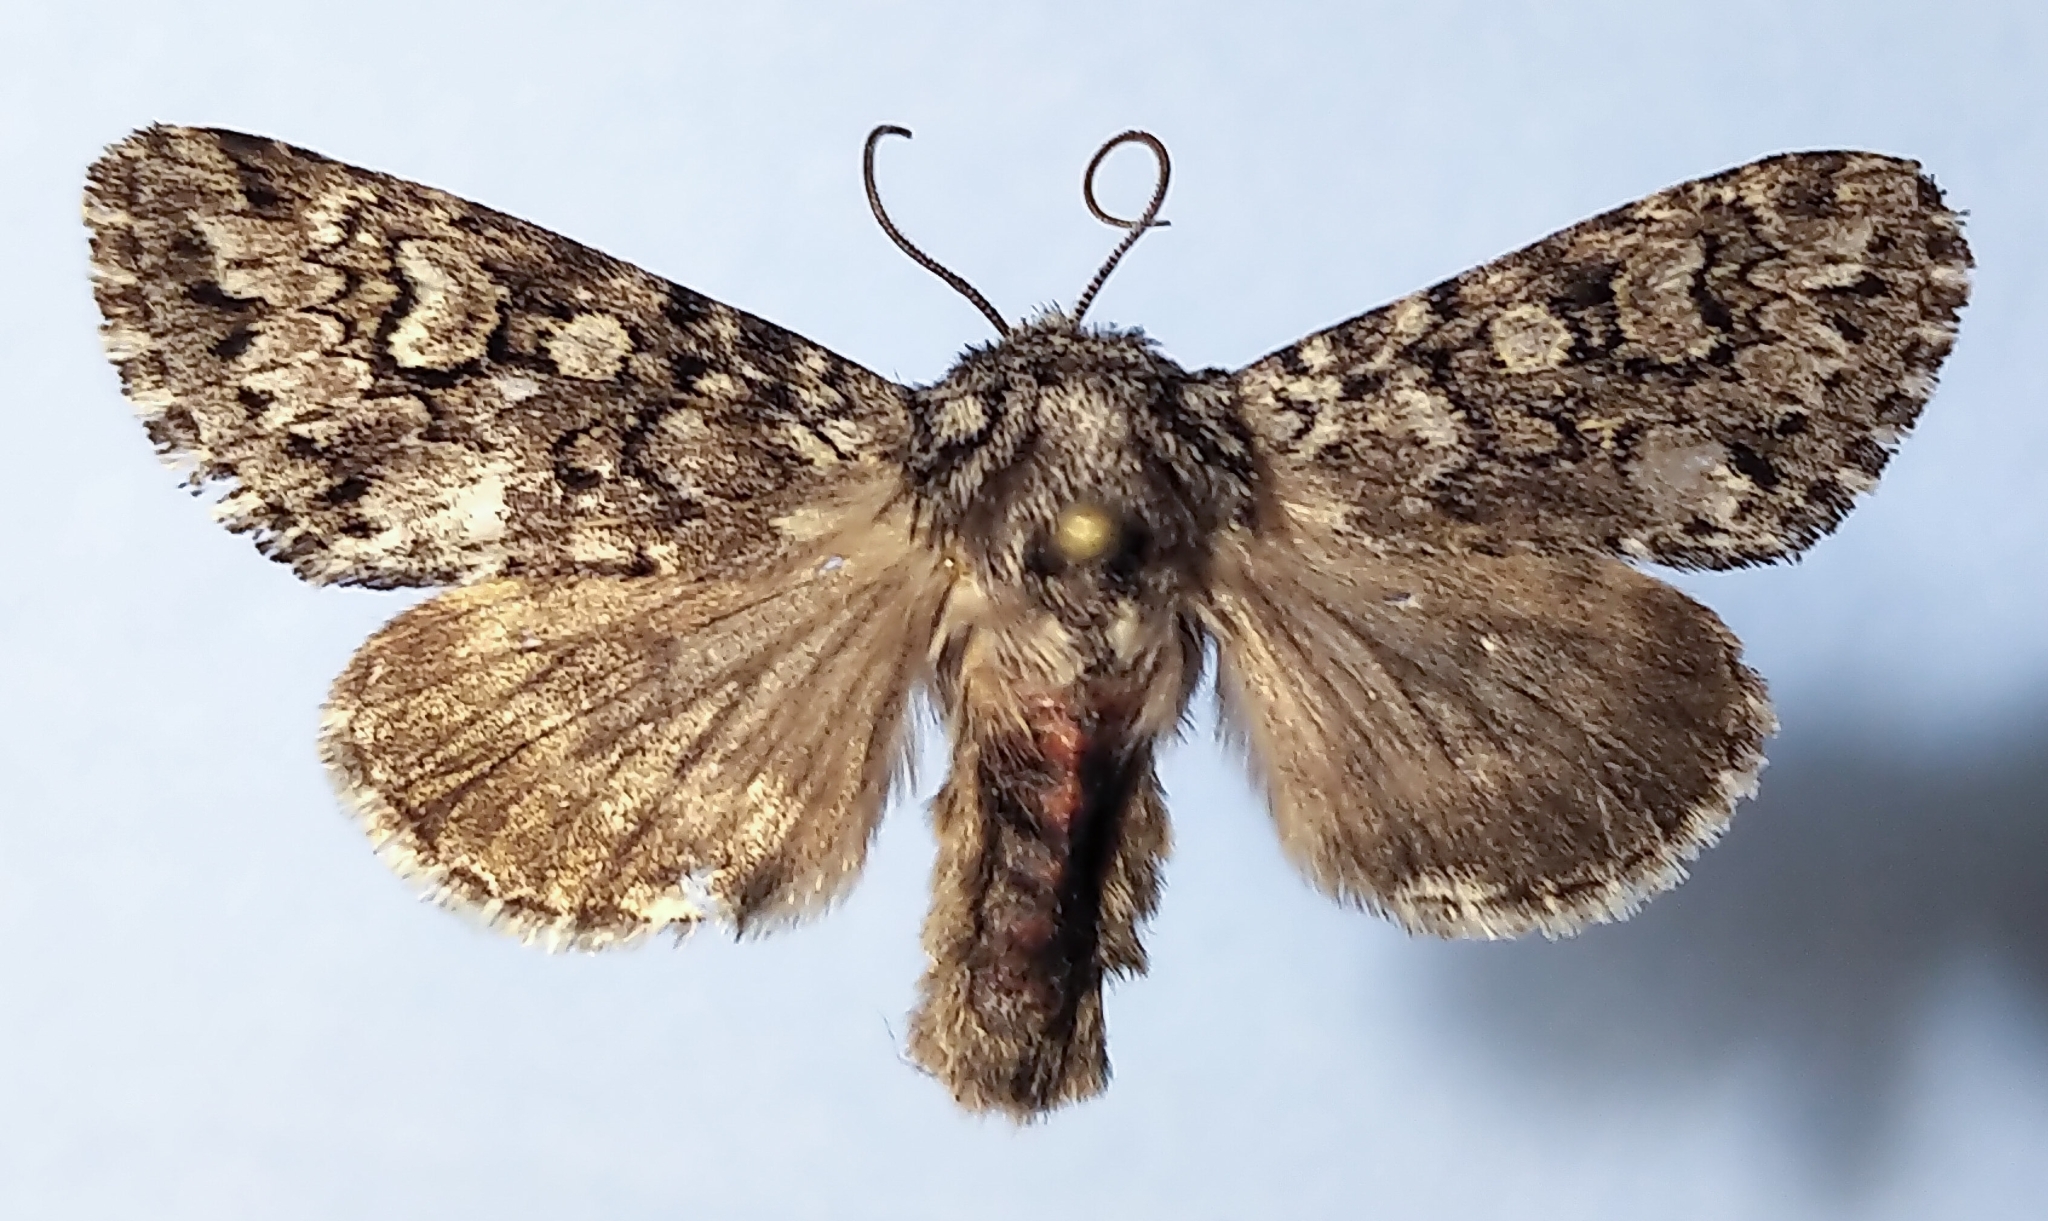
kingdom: Animalia
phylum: Arthropoda
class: Insecta
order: Lepidoptera
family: Noctuidae
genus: Lasionycta
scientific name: Lasionycta taigata
